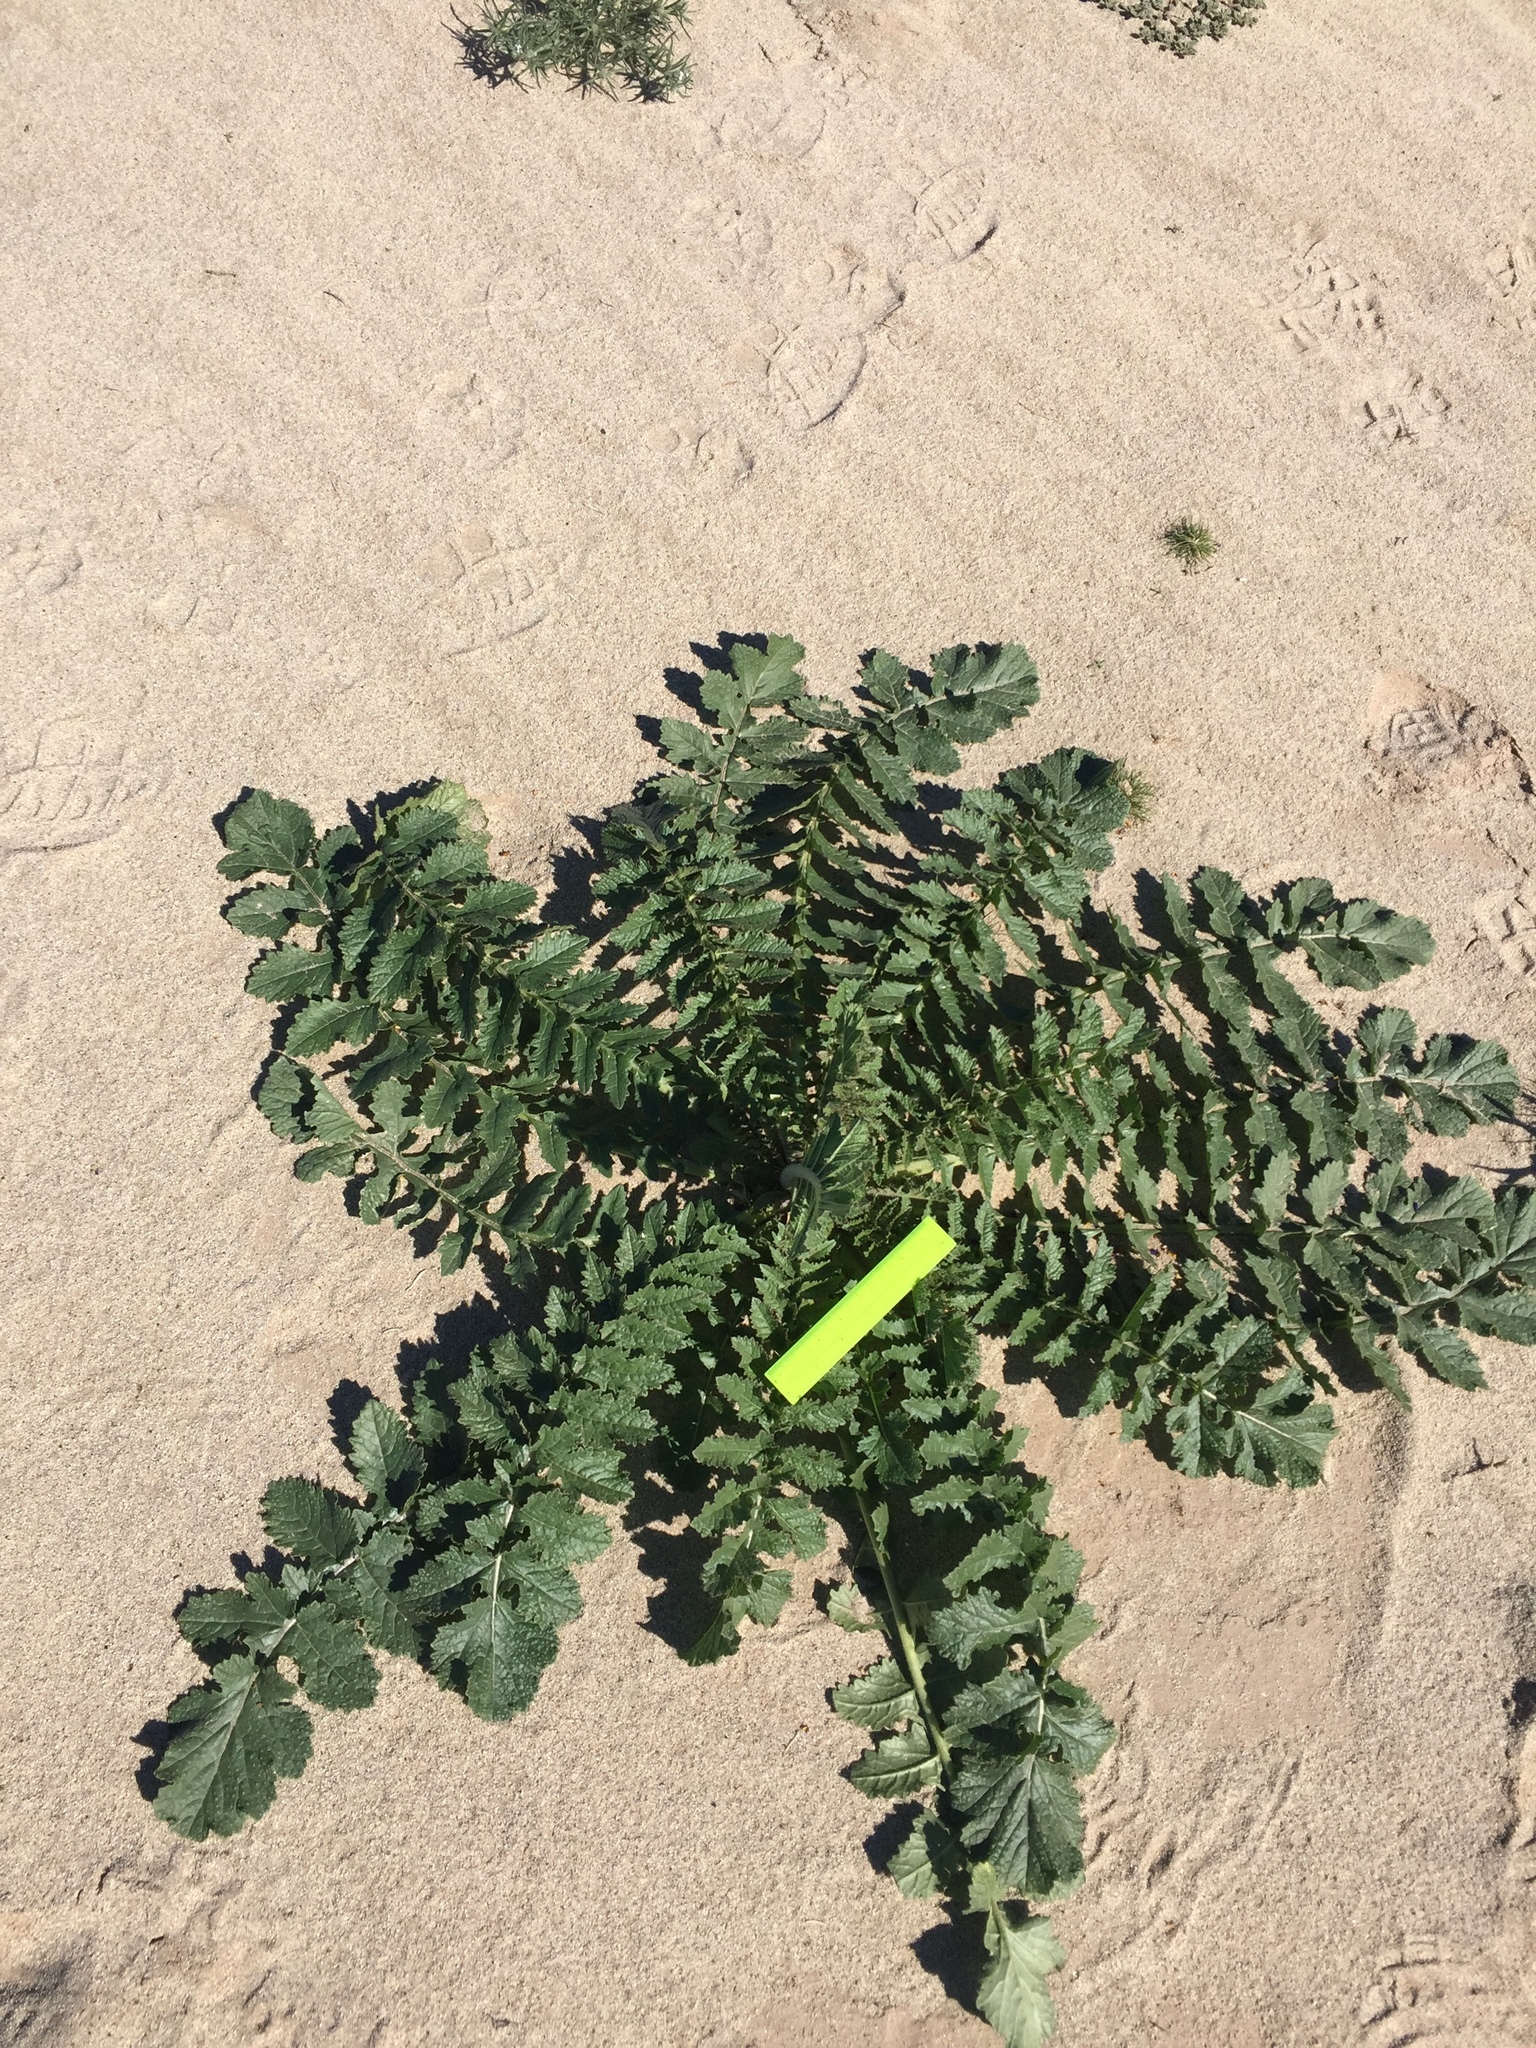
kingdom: Plantae
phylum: Tracheophyta
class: Magnoliopsida
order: Brassicales
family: Brassicaceae
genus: Brassica
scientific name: Brassica tournefortii
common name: Pale cabbage
